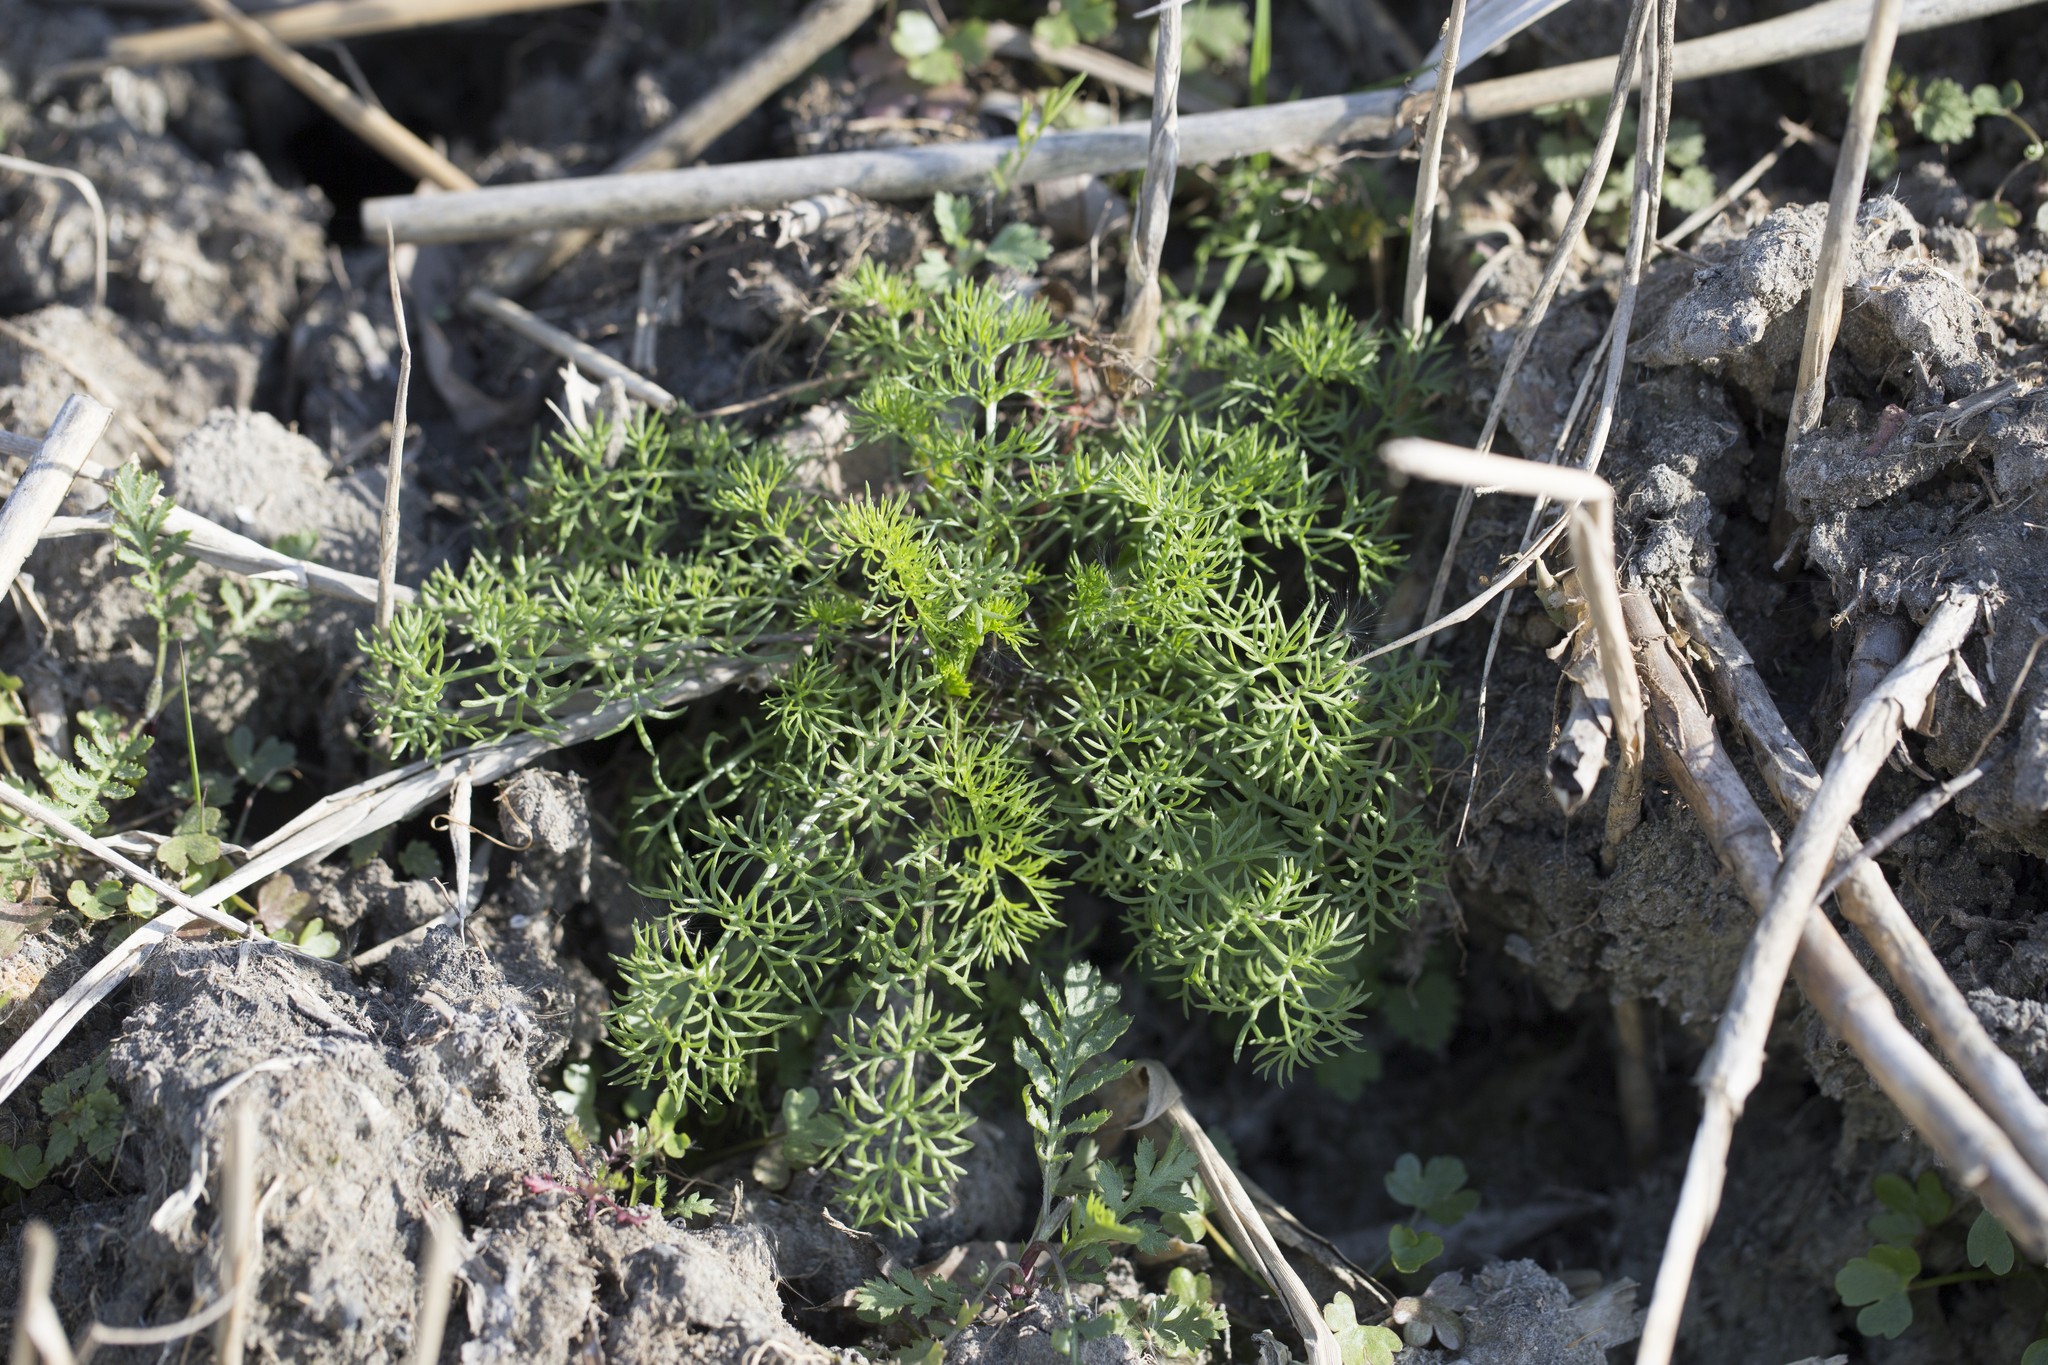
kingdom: Plantae
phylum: Tracheophyta
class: Magnoliopsida
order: Asterales
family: Asteraceae
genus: Tripleurospermum
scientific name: Tripleurospermum inodorum
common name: Scentless mayweed
